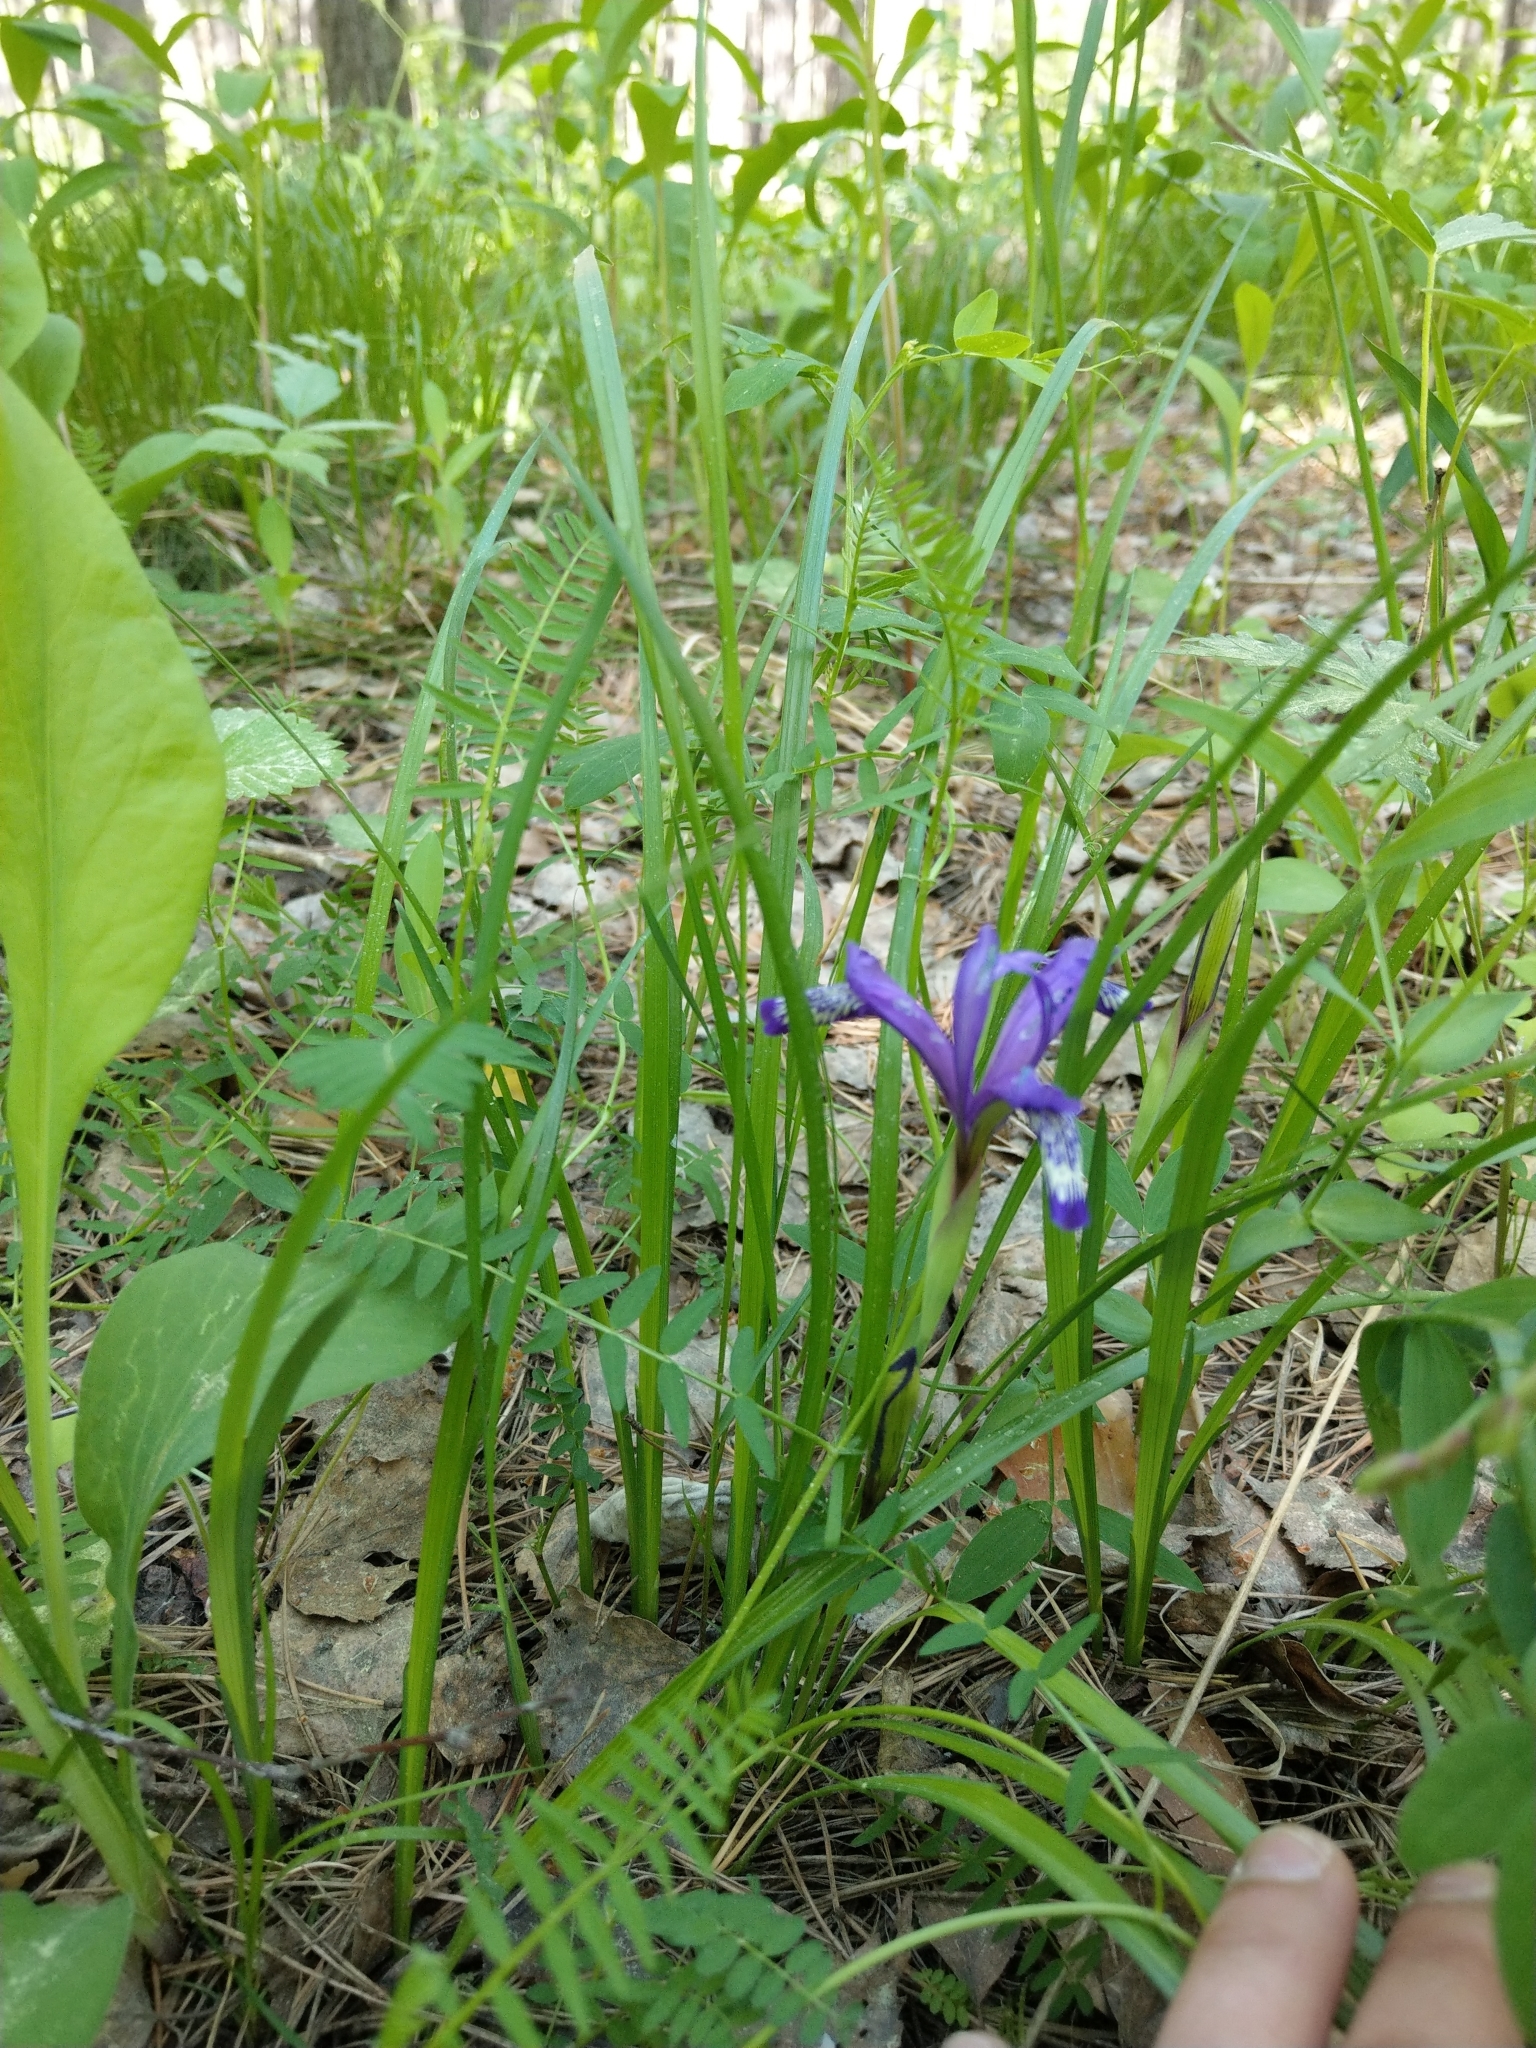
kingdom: Plantae
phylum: Tracheophyta
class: Liliopsida
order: Asparagales
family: Iridaceae
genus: Iris
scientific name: Iris ruthenica
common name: Purple-bract iris
